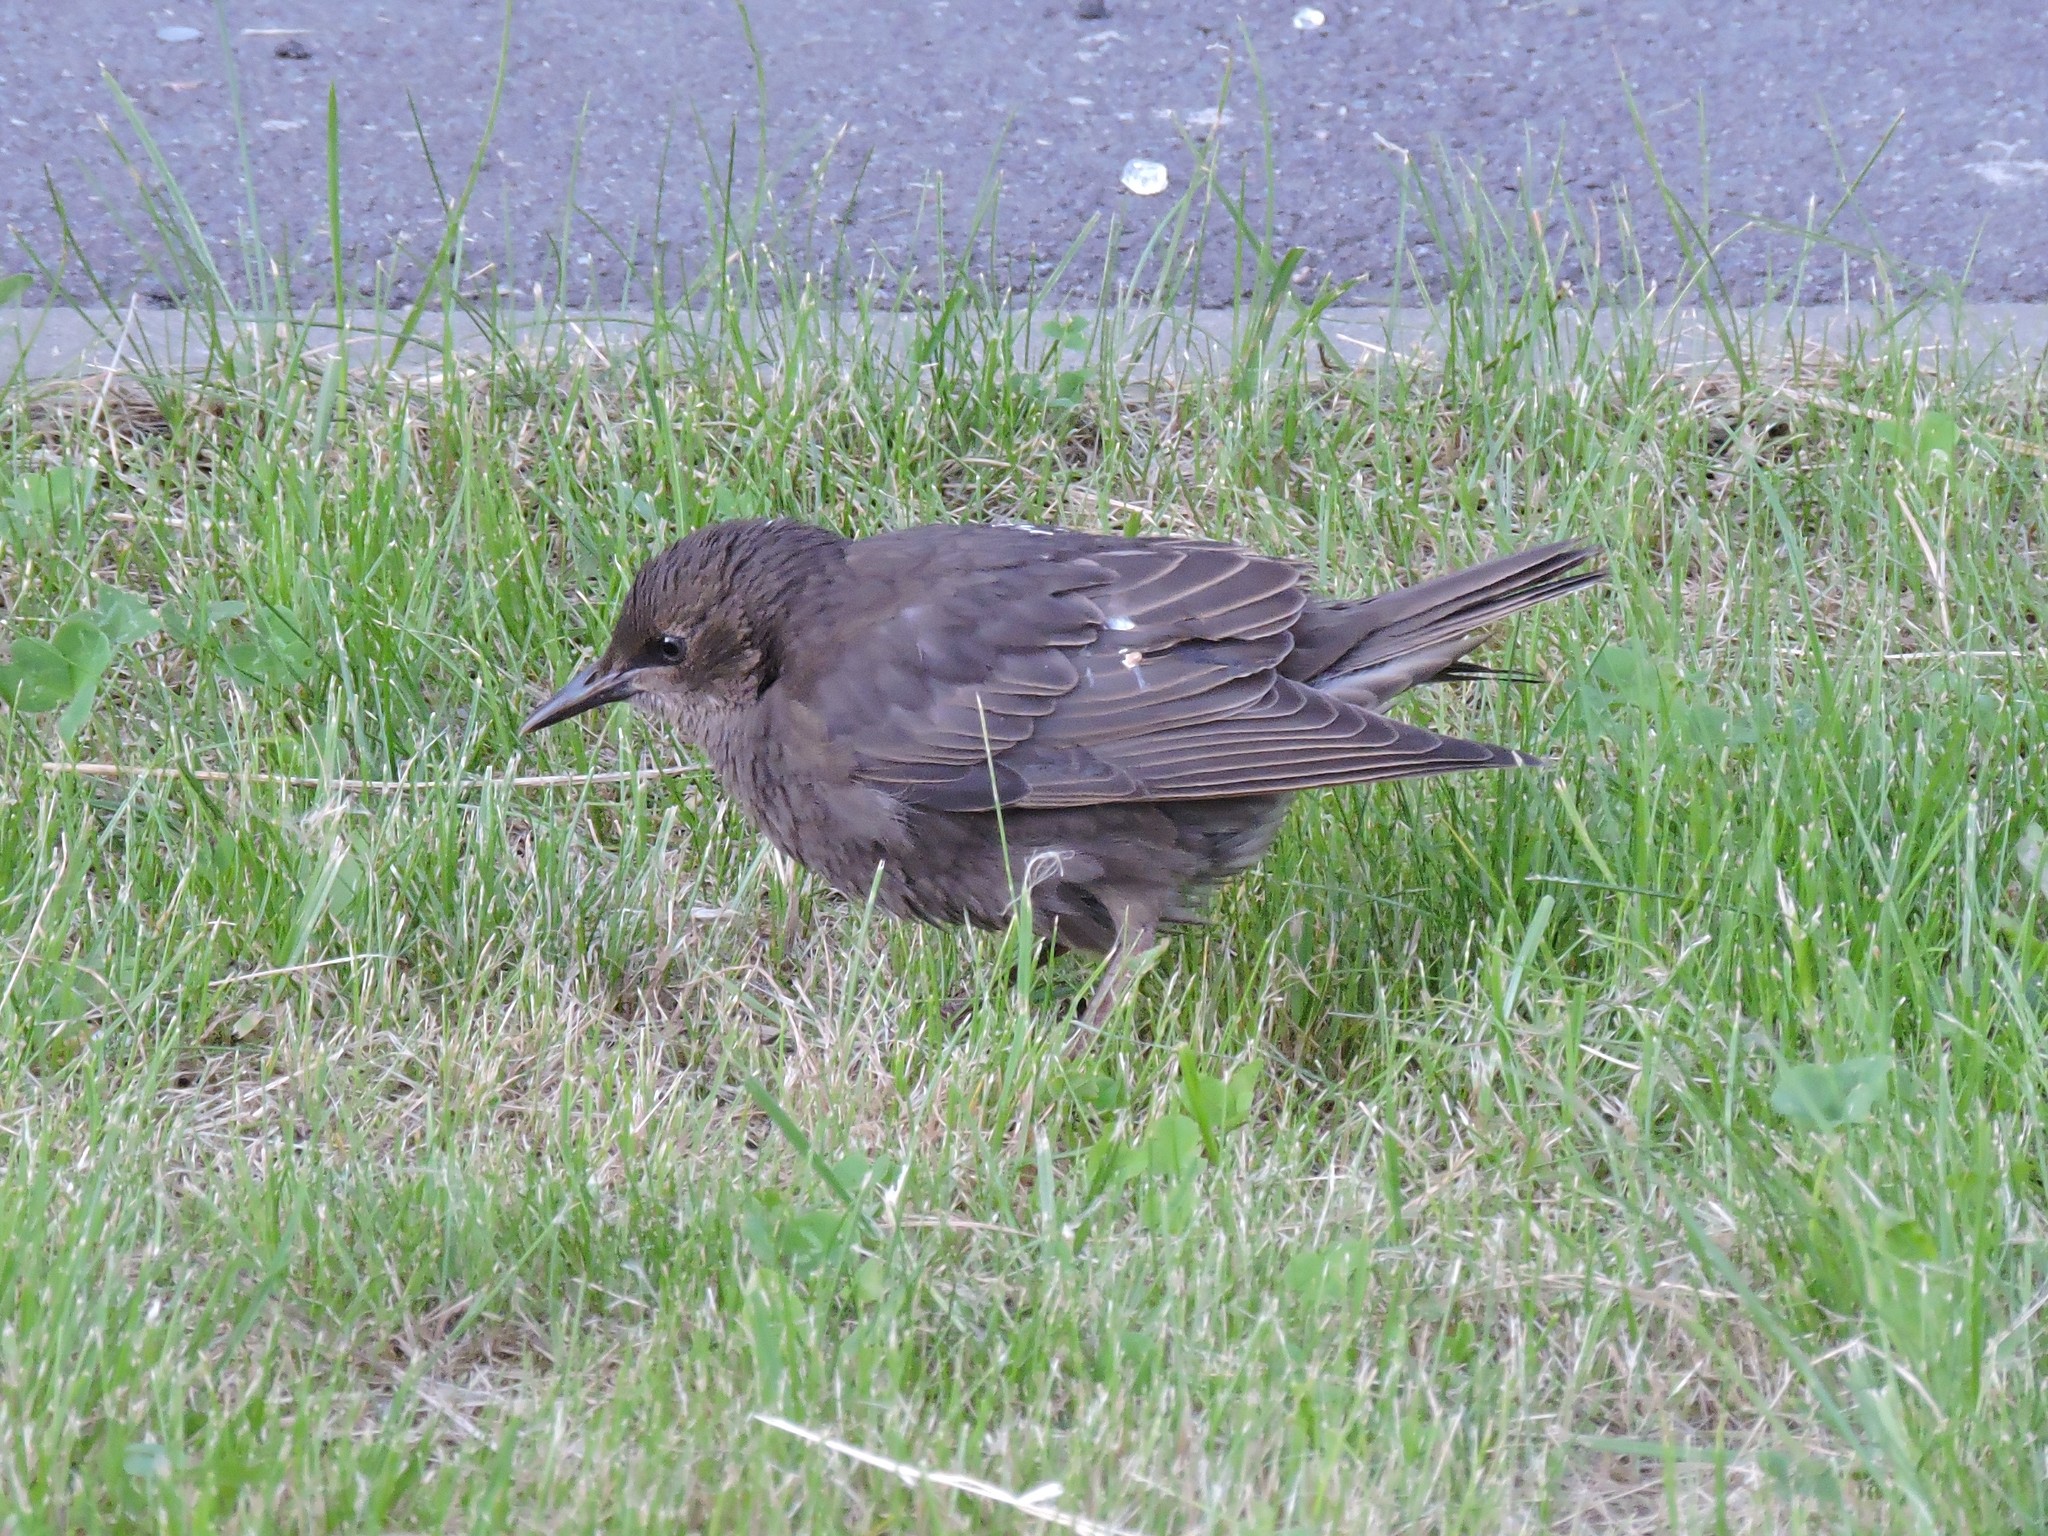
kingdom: Animalia
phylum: Chordata
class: Aves
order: Passeriformes
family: Sturnidae
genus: Sturnus
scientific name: Sturnus vulgaris
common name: Common starling
